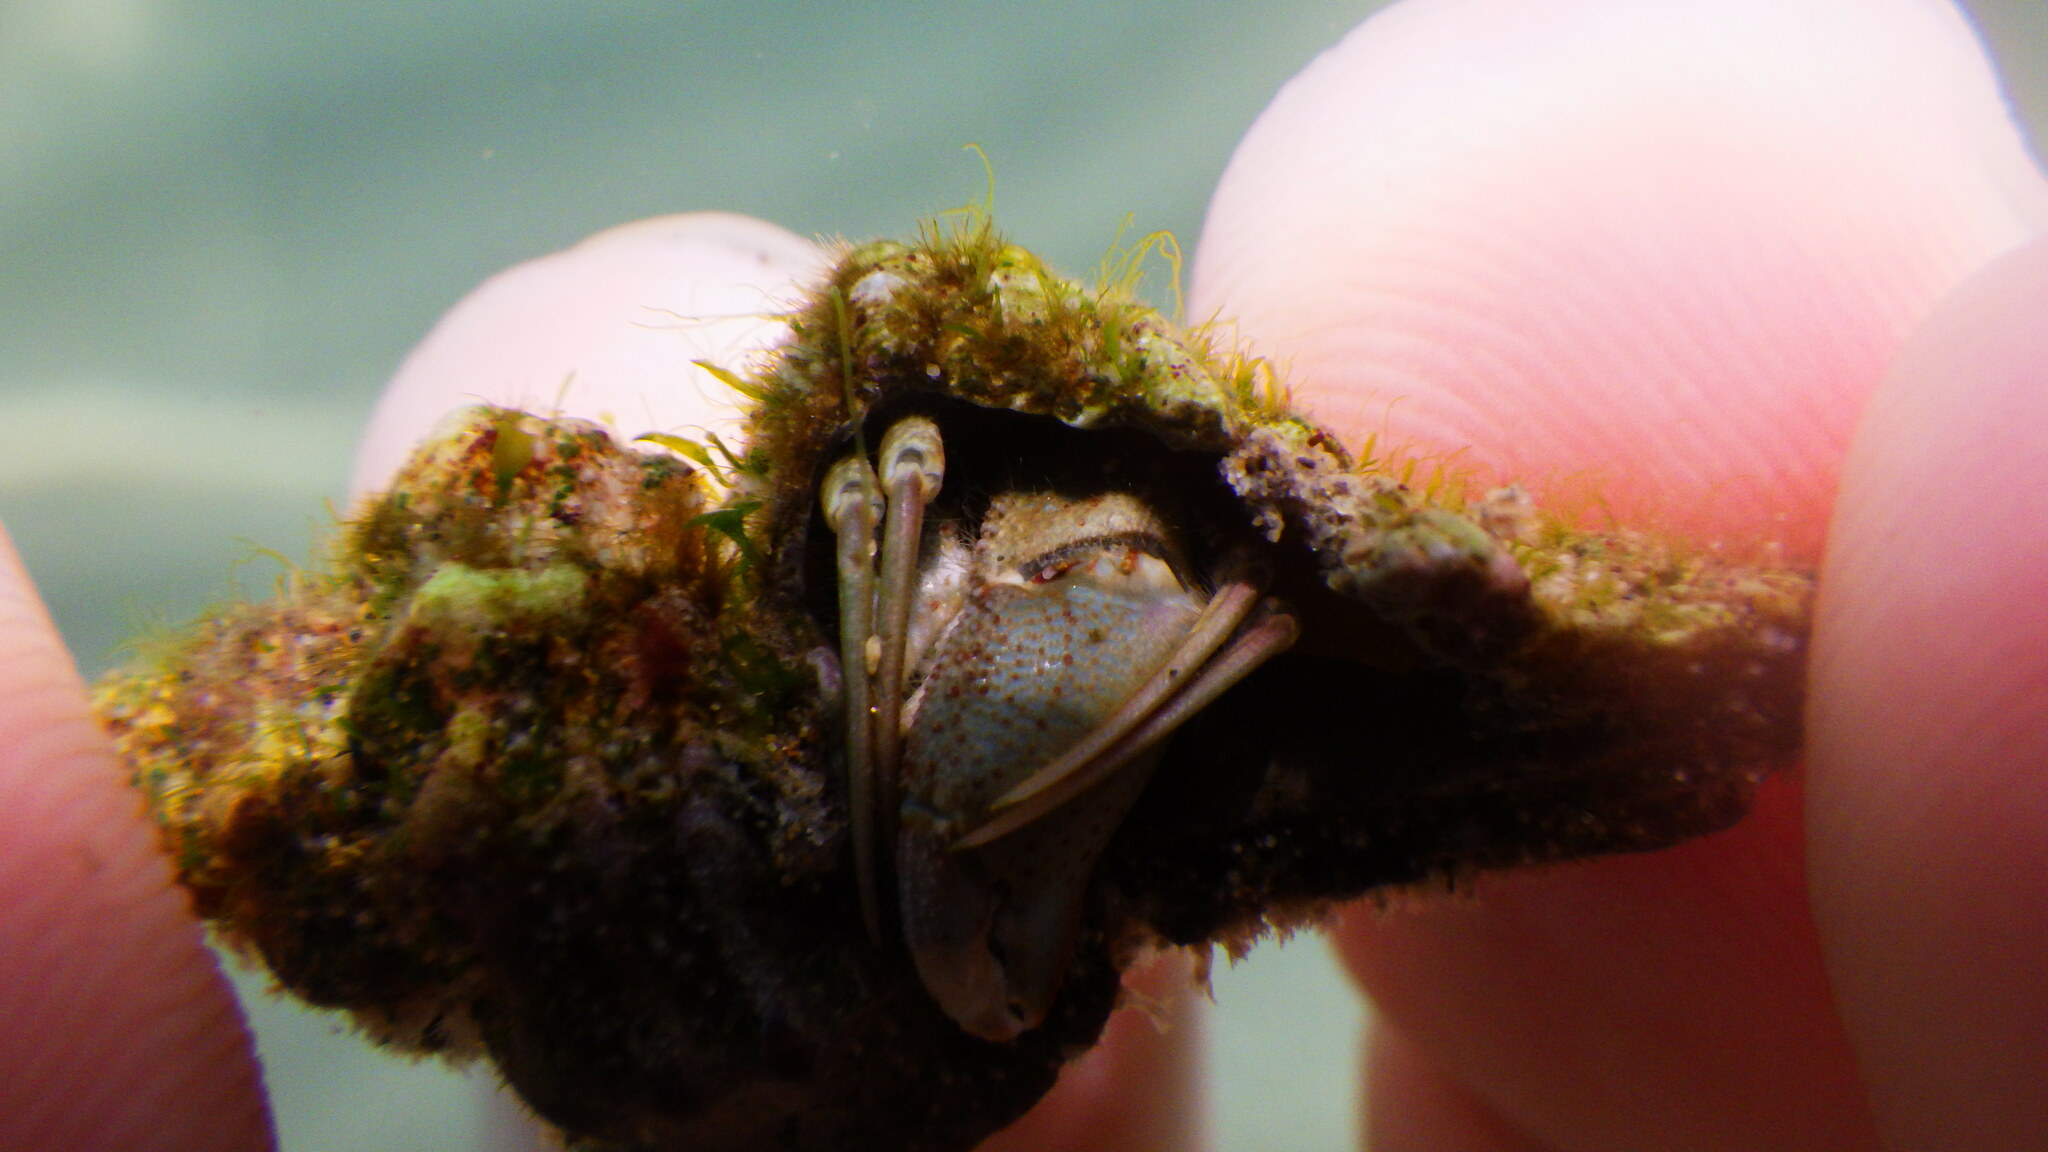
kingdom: Animalia
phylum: Arthropoda
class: Malacostraca
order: Decapoda
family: Diogenidae
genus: Diogenes
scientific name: Diogenes pugilator
